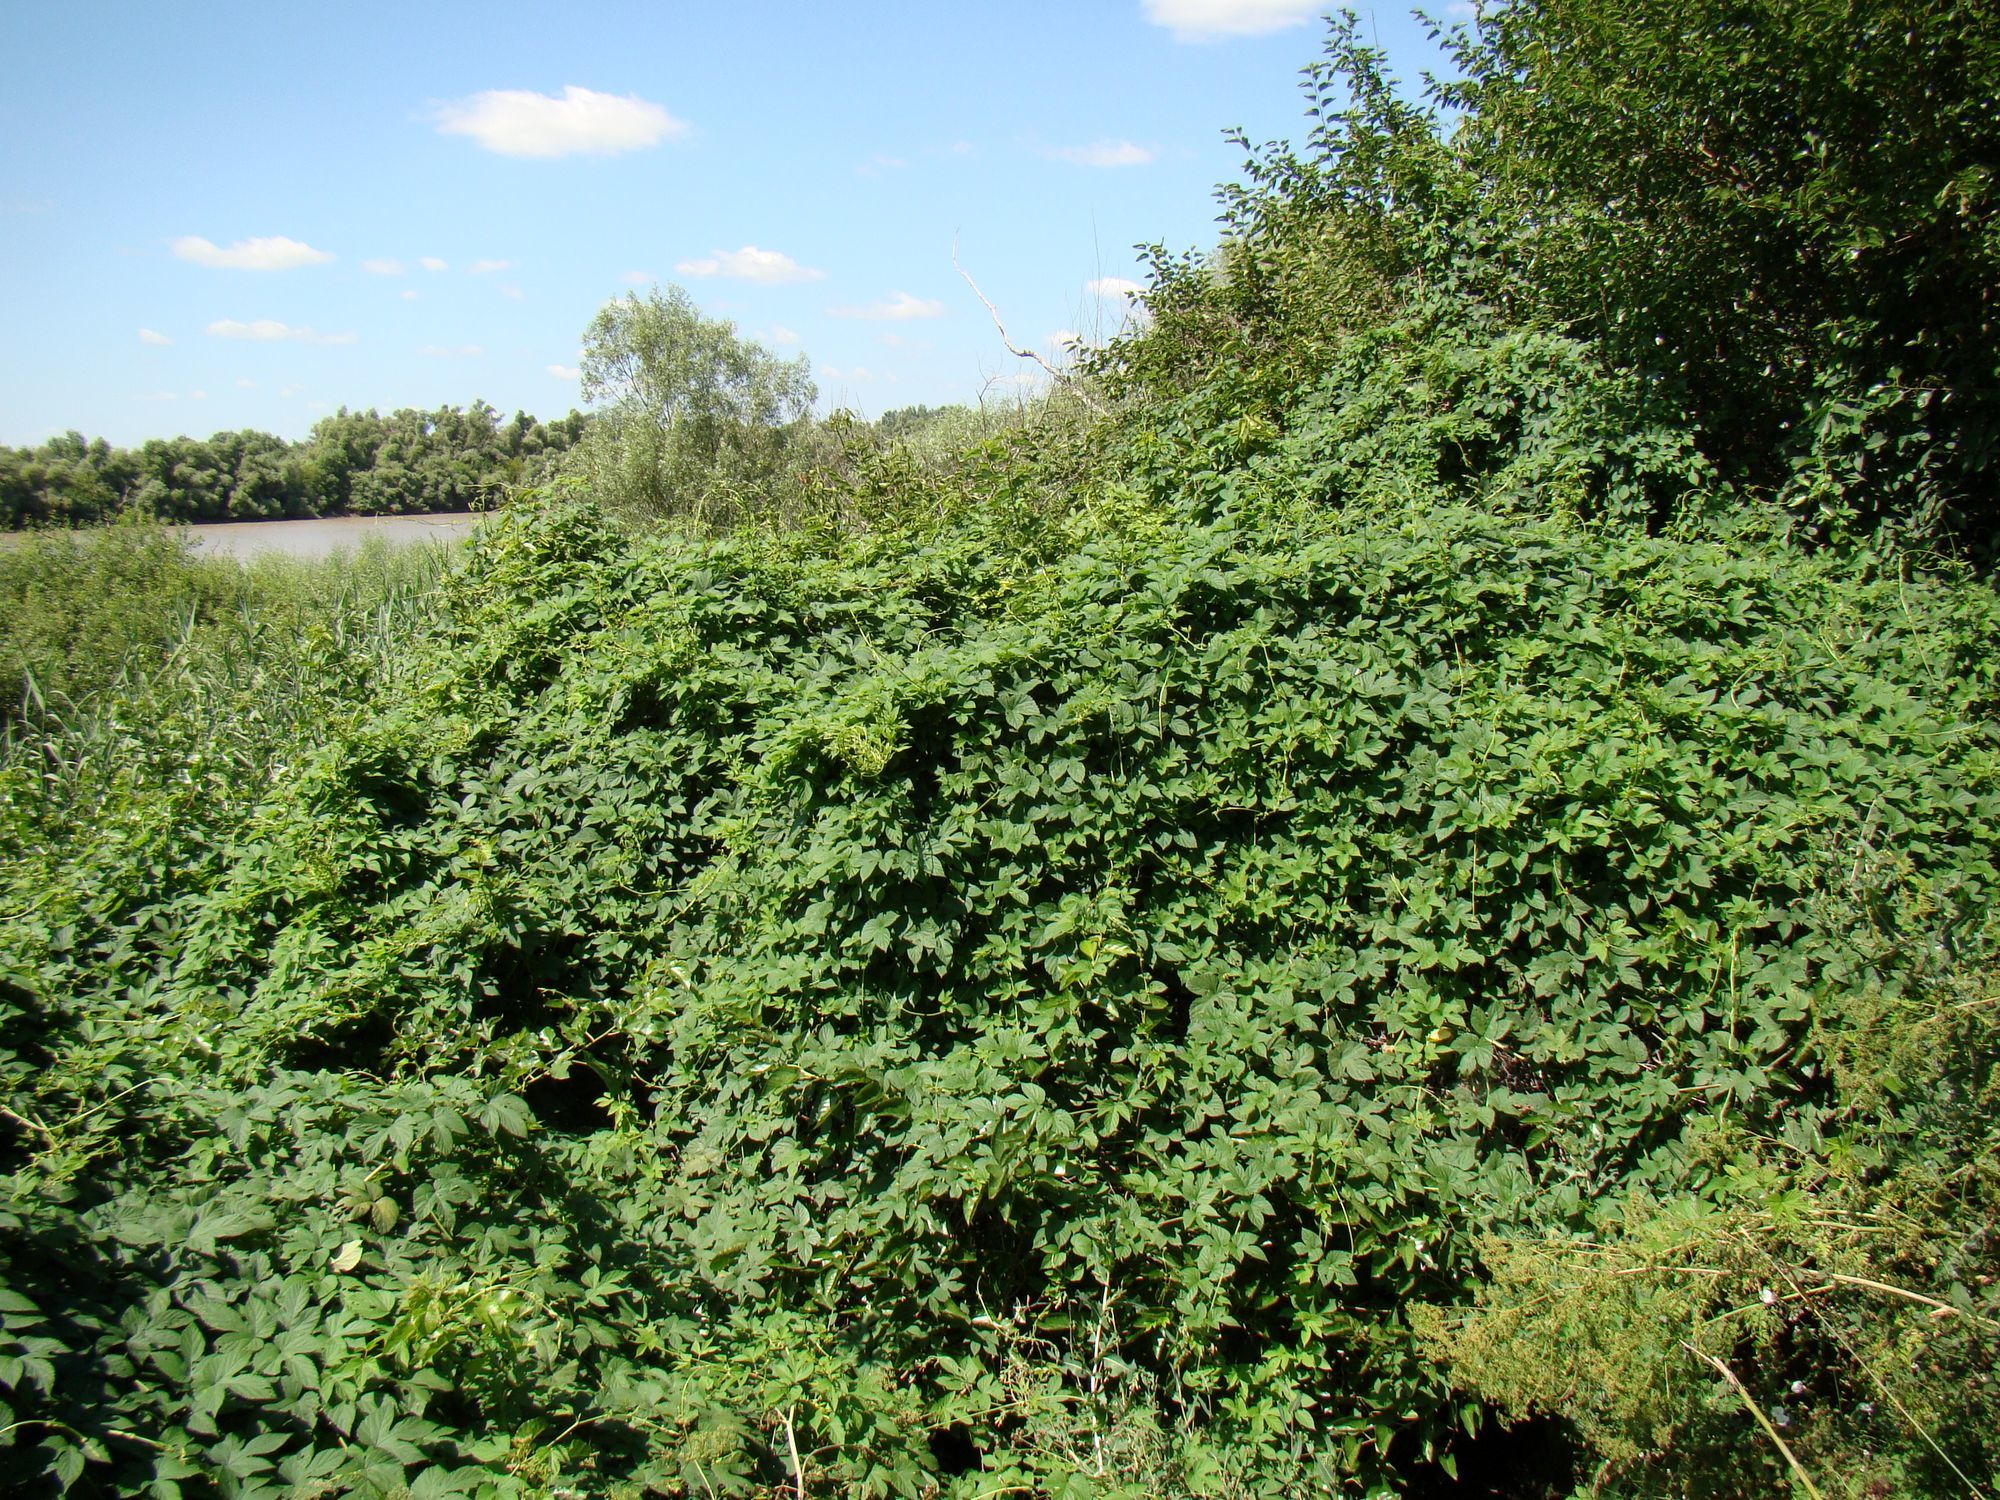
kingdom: Plantae
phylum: Tracheophyta
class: Magnoliopsida
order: Rosales
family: Cannabaceae
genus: Humulus
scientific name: Humulus lupulus
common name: Hop
